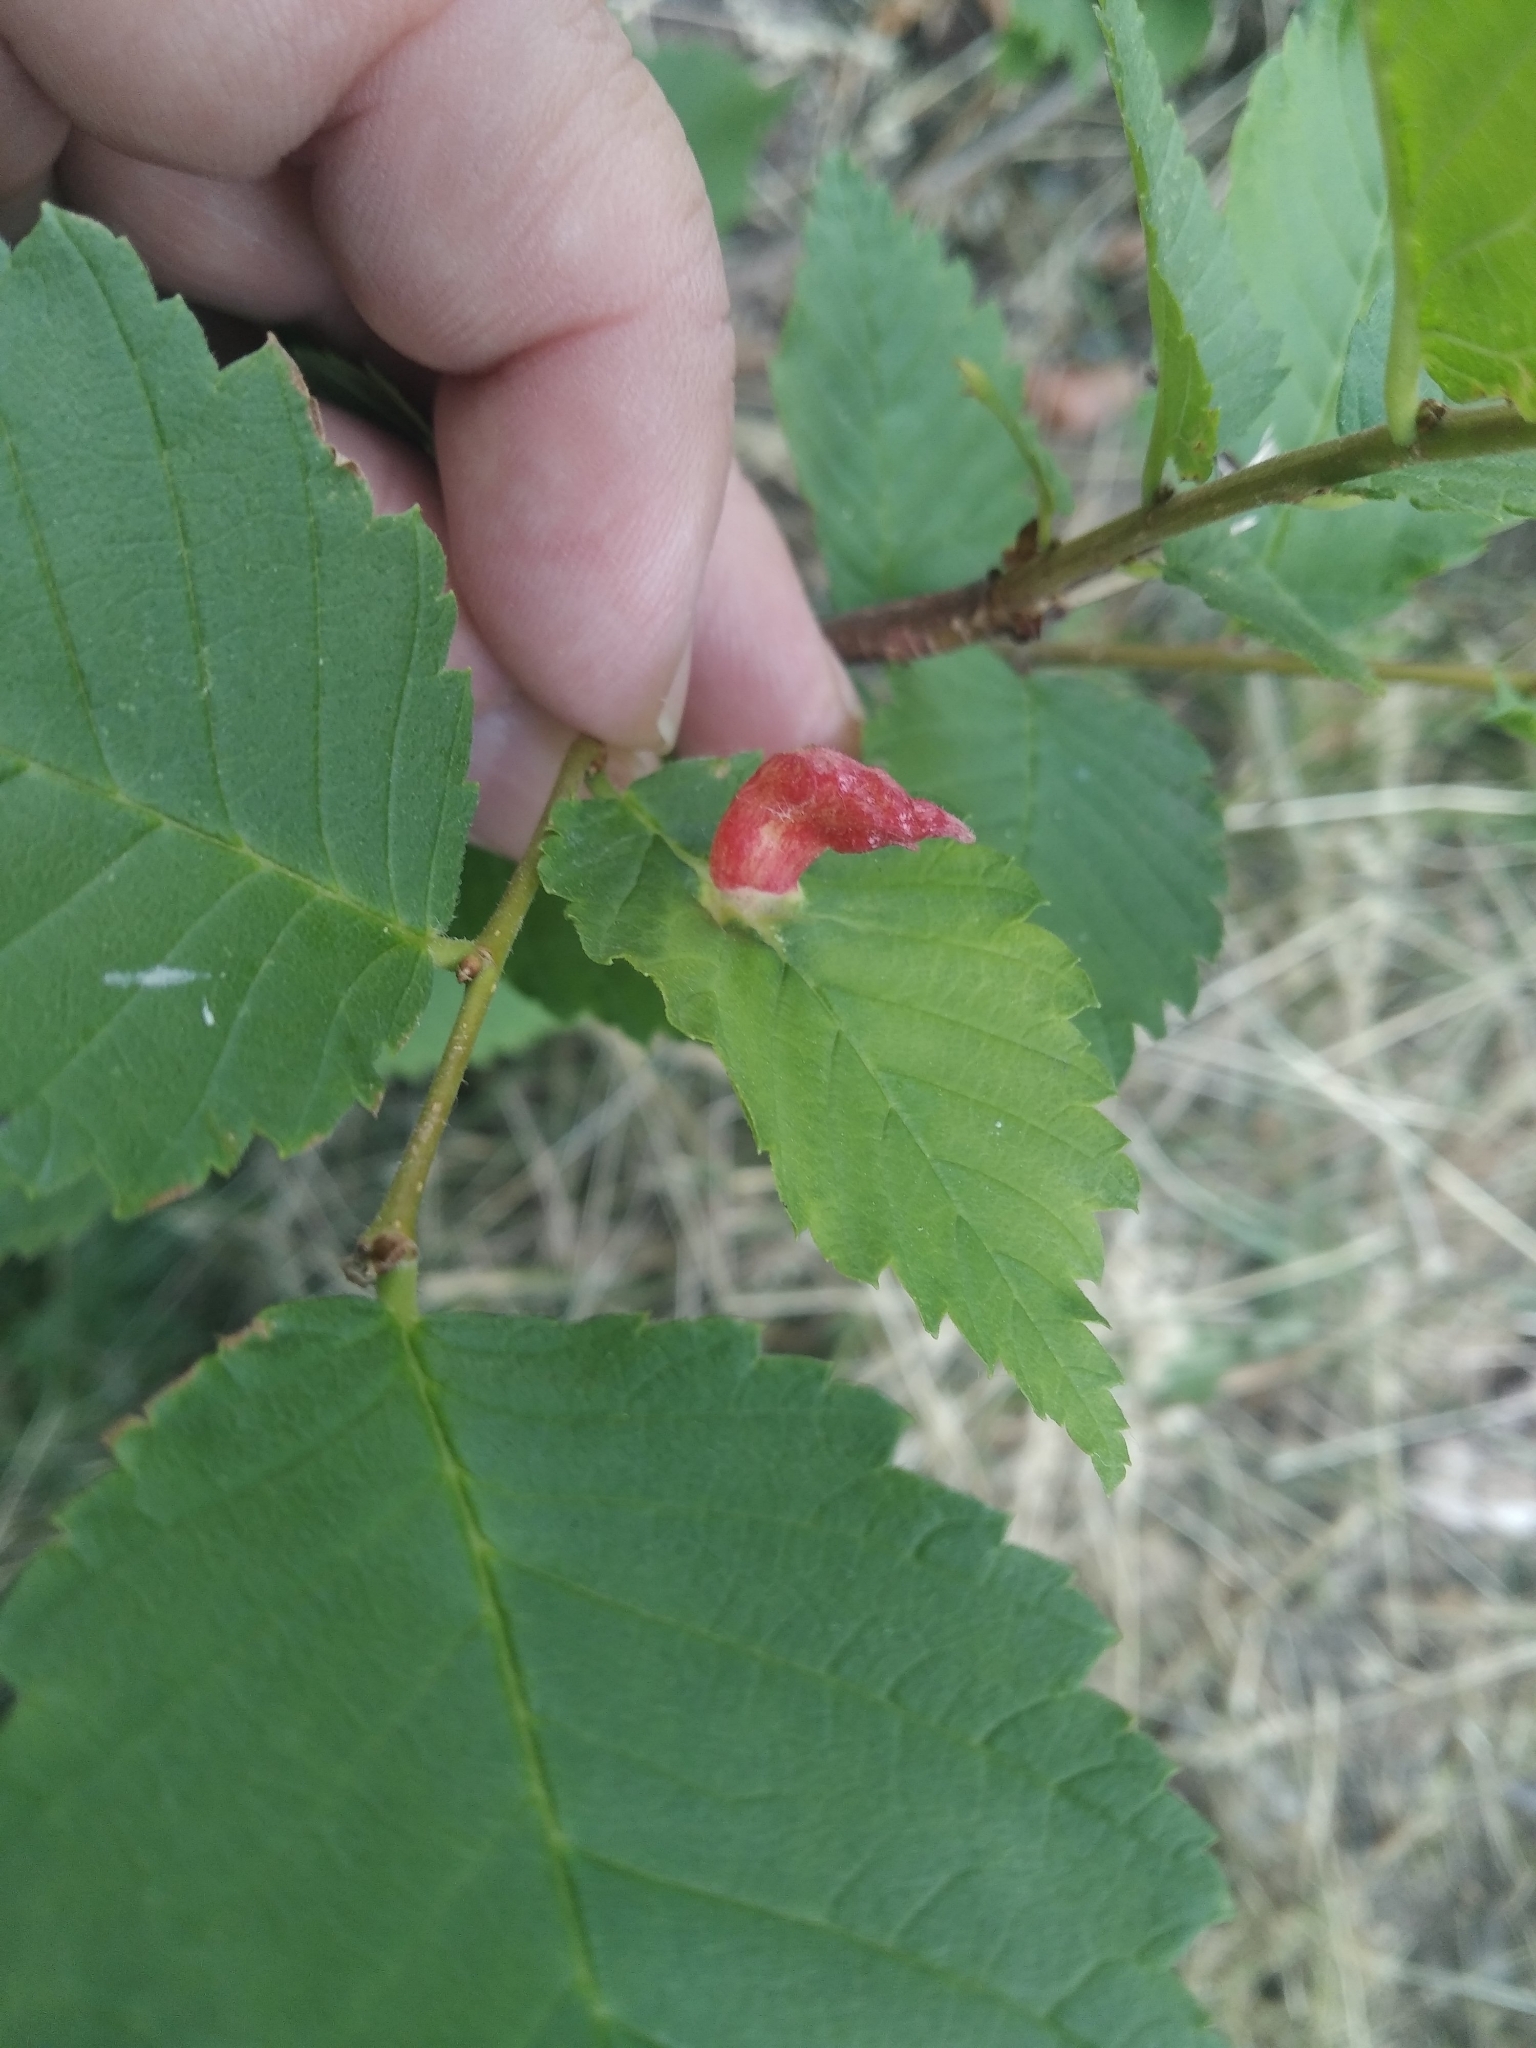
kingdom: Animalia
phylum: Arthropoda
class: Insecta
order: Hemiptera
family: Aphididae
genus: Tetraneura
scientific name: Tetraneura nigriabdominalis
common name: Aphid
